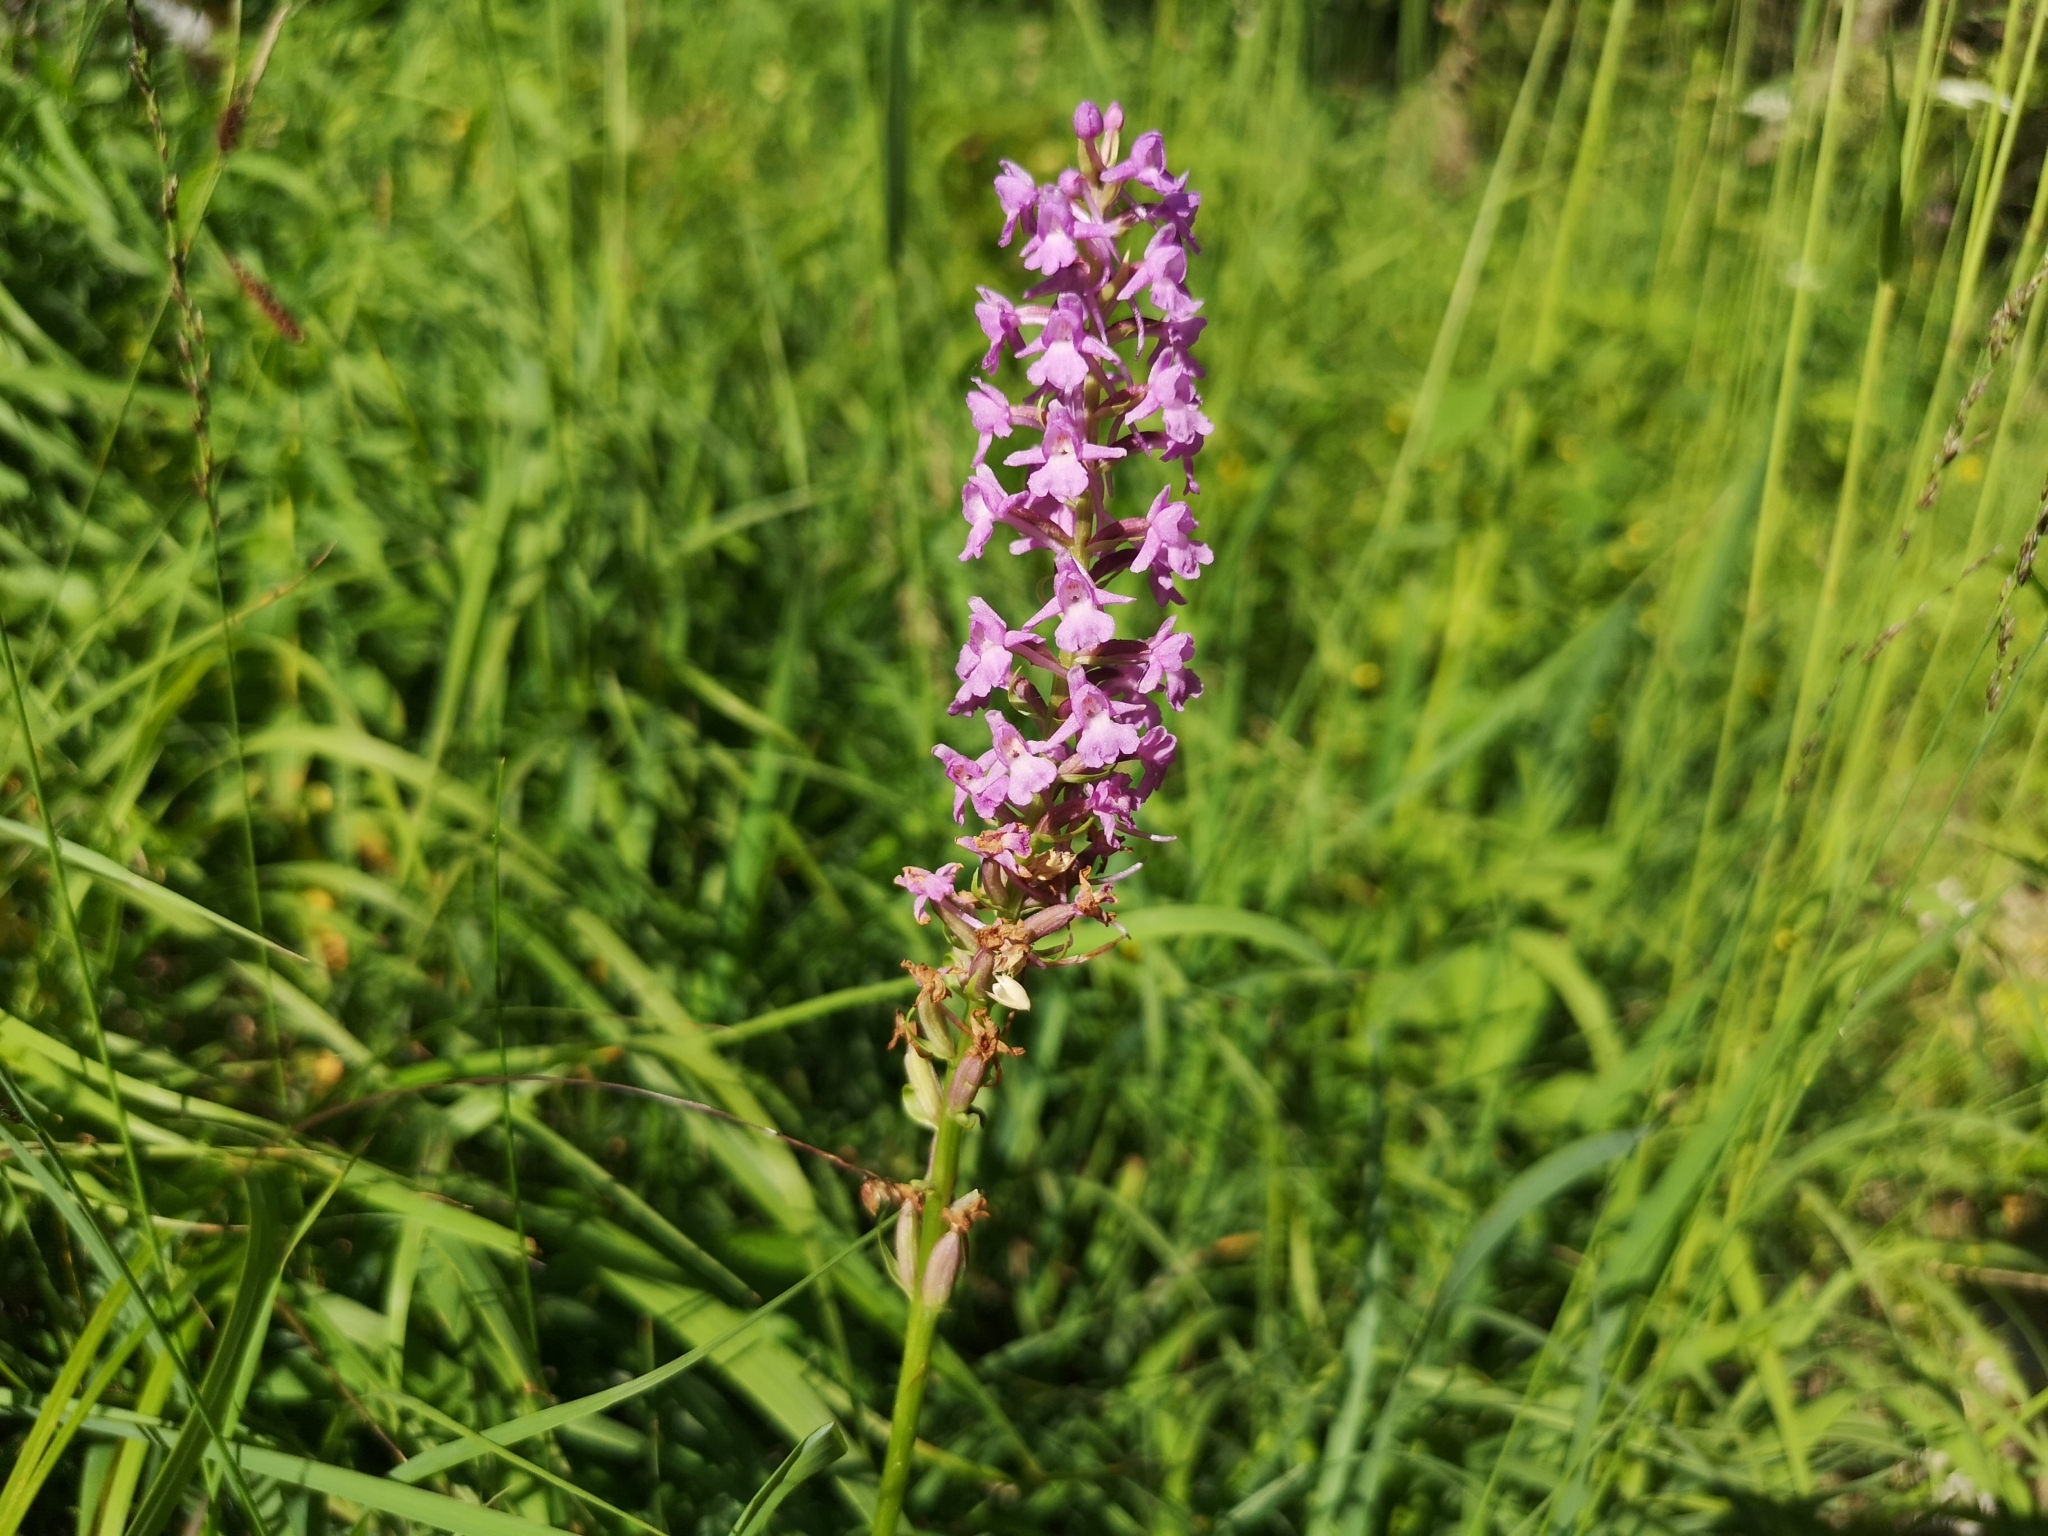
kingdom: Plantae
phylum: Tracheophyta
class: Liliopsida
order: Asparagales
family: Orchidaceae
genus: Gymnadenia
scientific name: Gymnadenia conopsea
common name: Fragrant orchid
